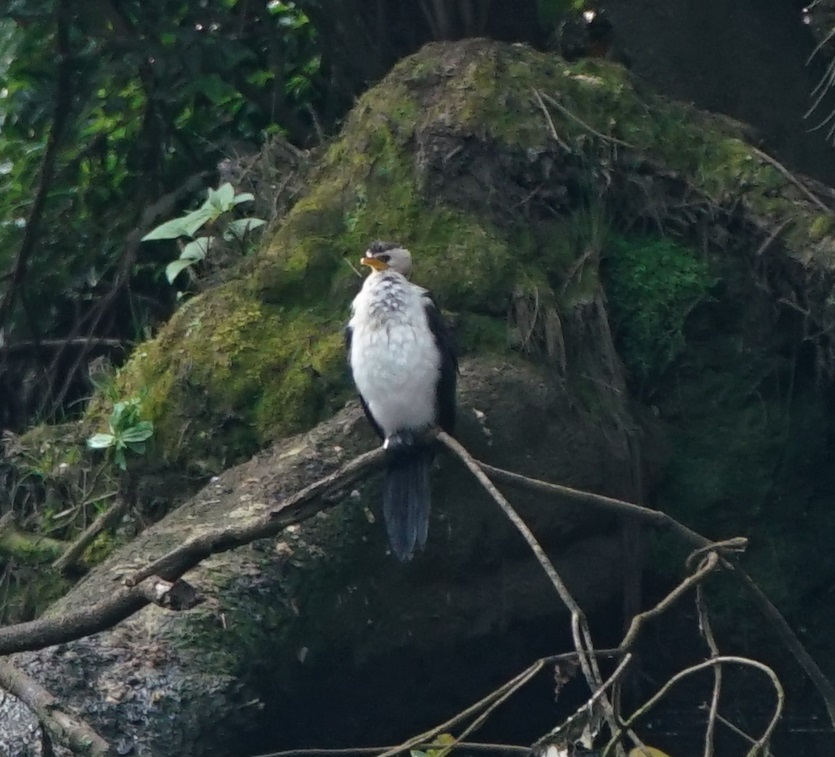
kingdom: Animalia
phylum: Chordata
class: Aves
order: Suliformes
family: Phalacrocoracidae
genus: Microcarbo
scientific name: Microcarbo melanoleucos
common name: Little pied cormorant
